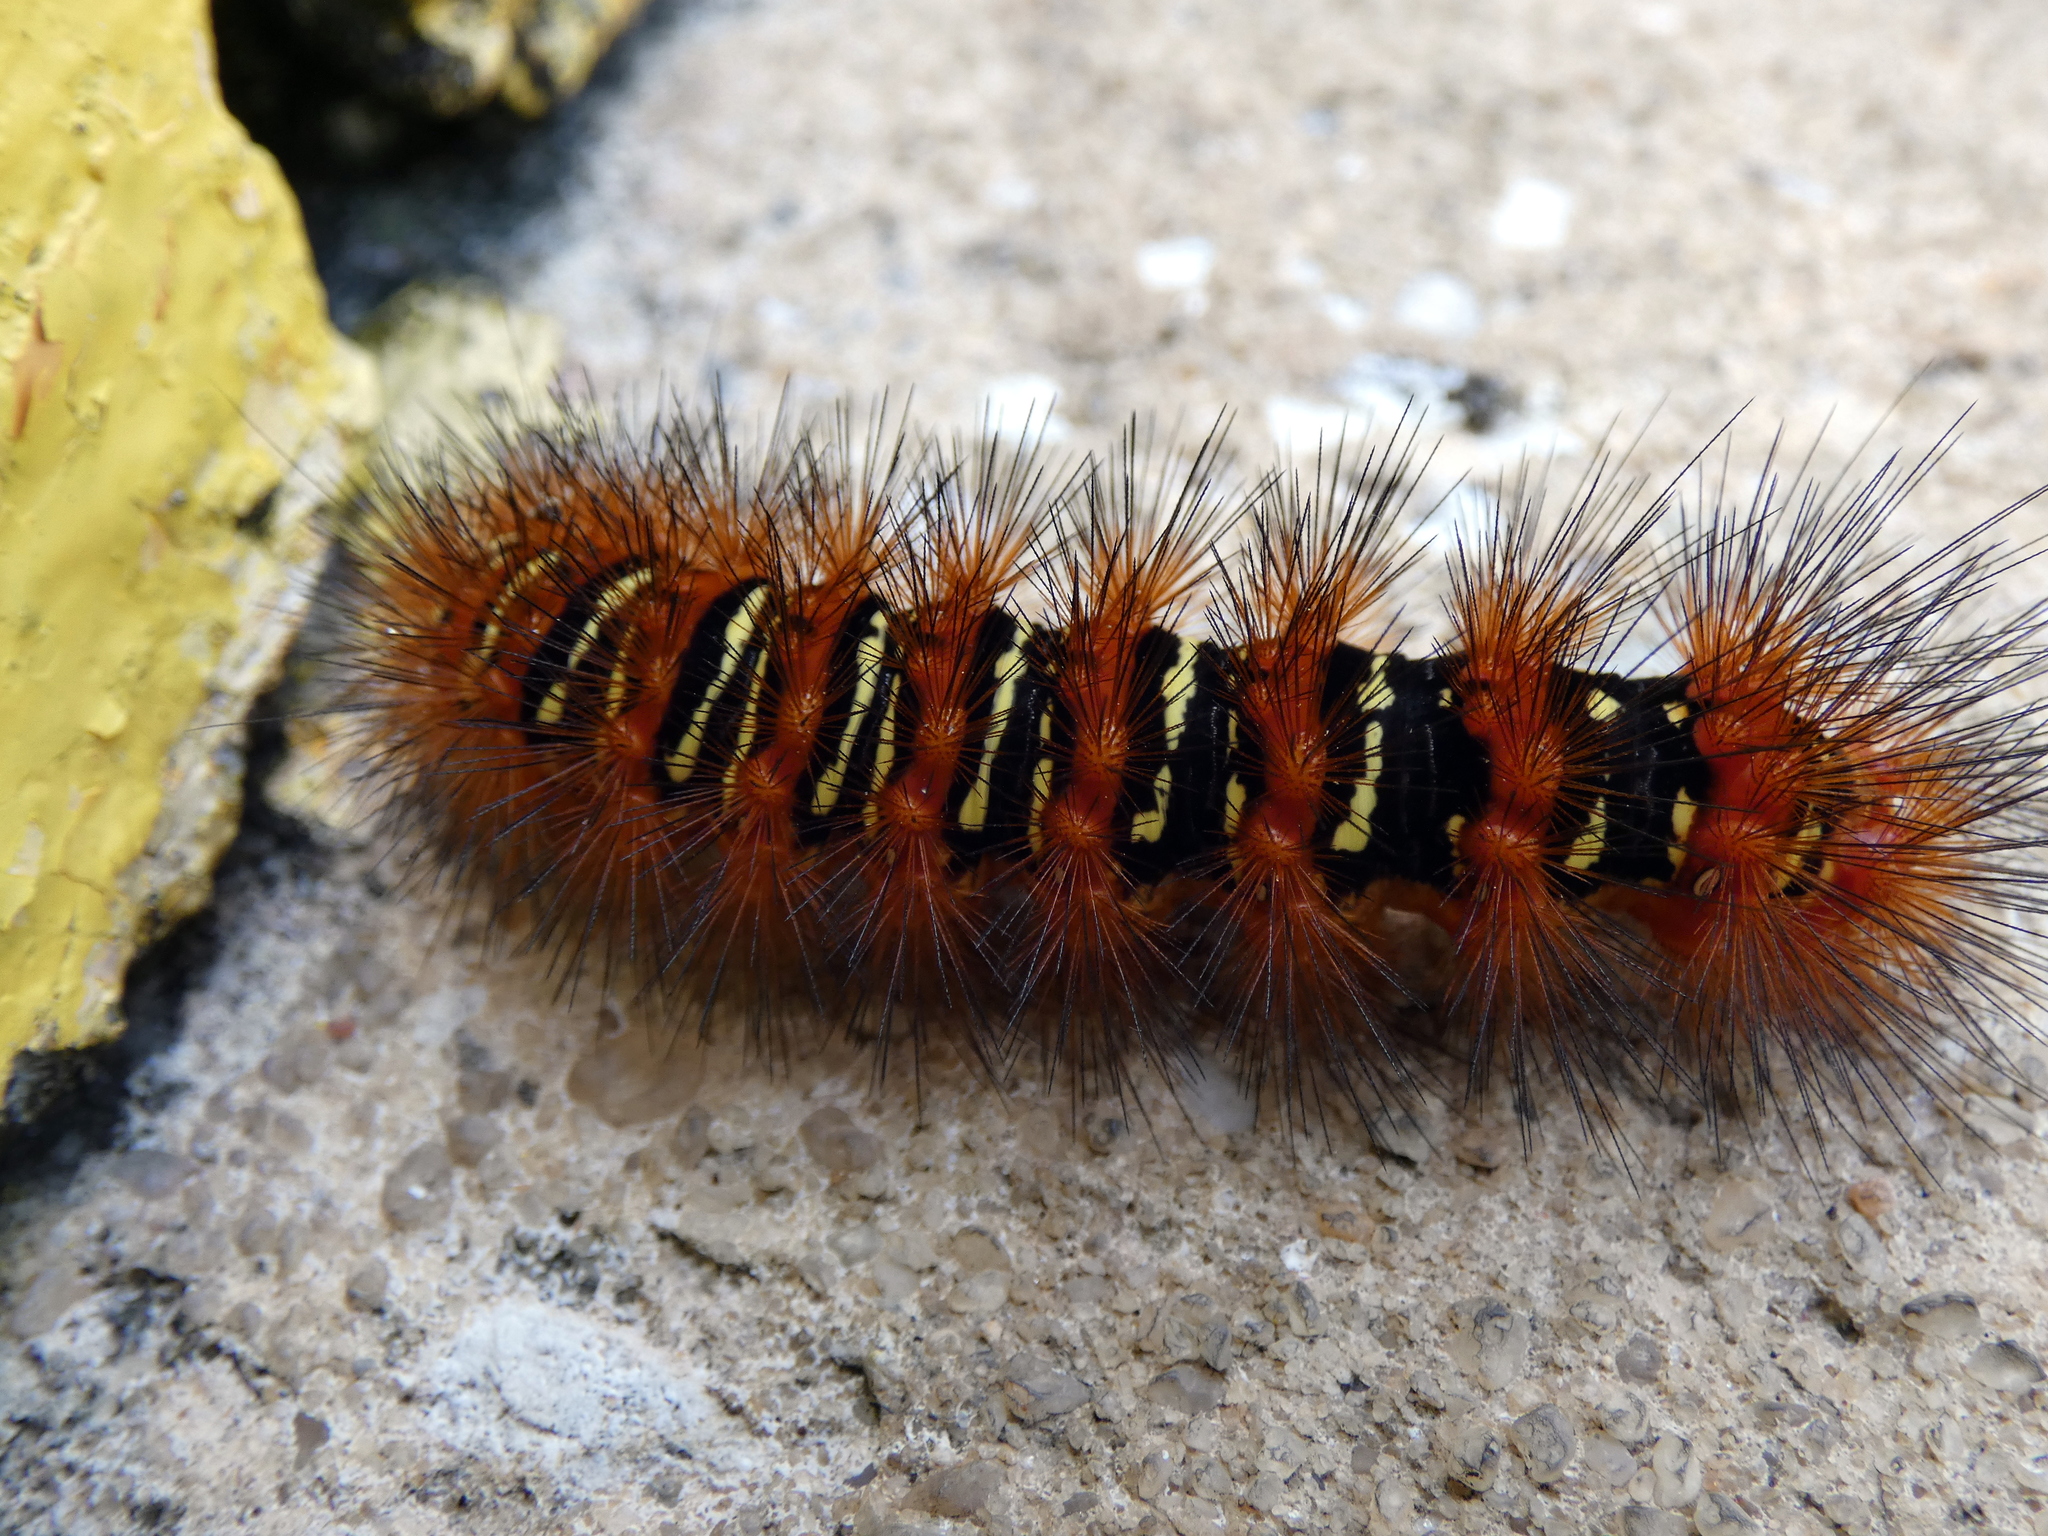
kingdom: Animalia
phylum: Arthropoda
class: Insecta
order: Lepidoptera
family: Erebidae
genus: Seirarctia
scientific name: Seirarctia echo
